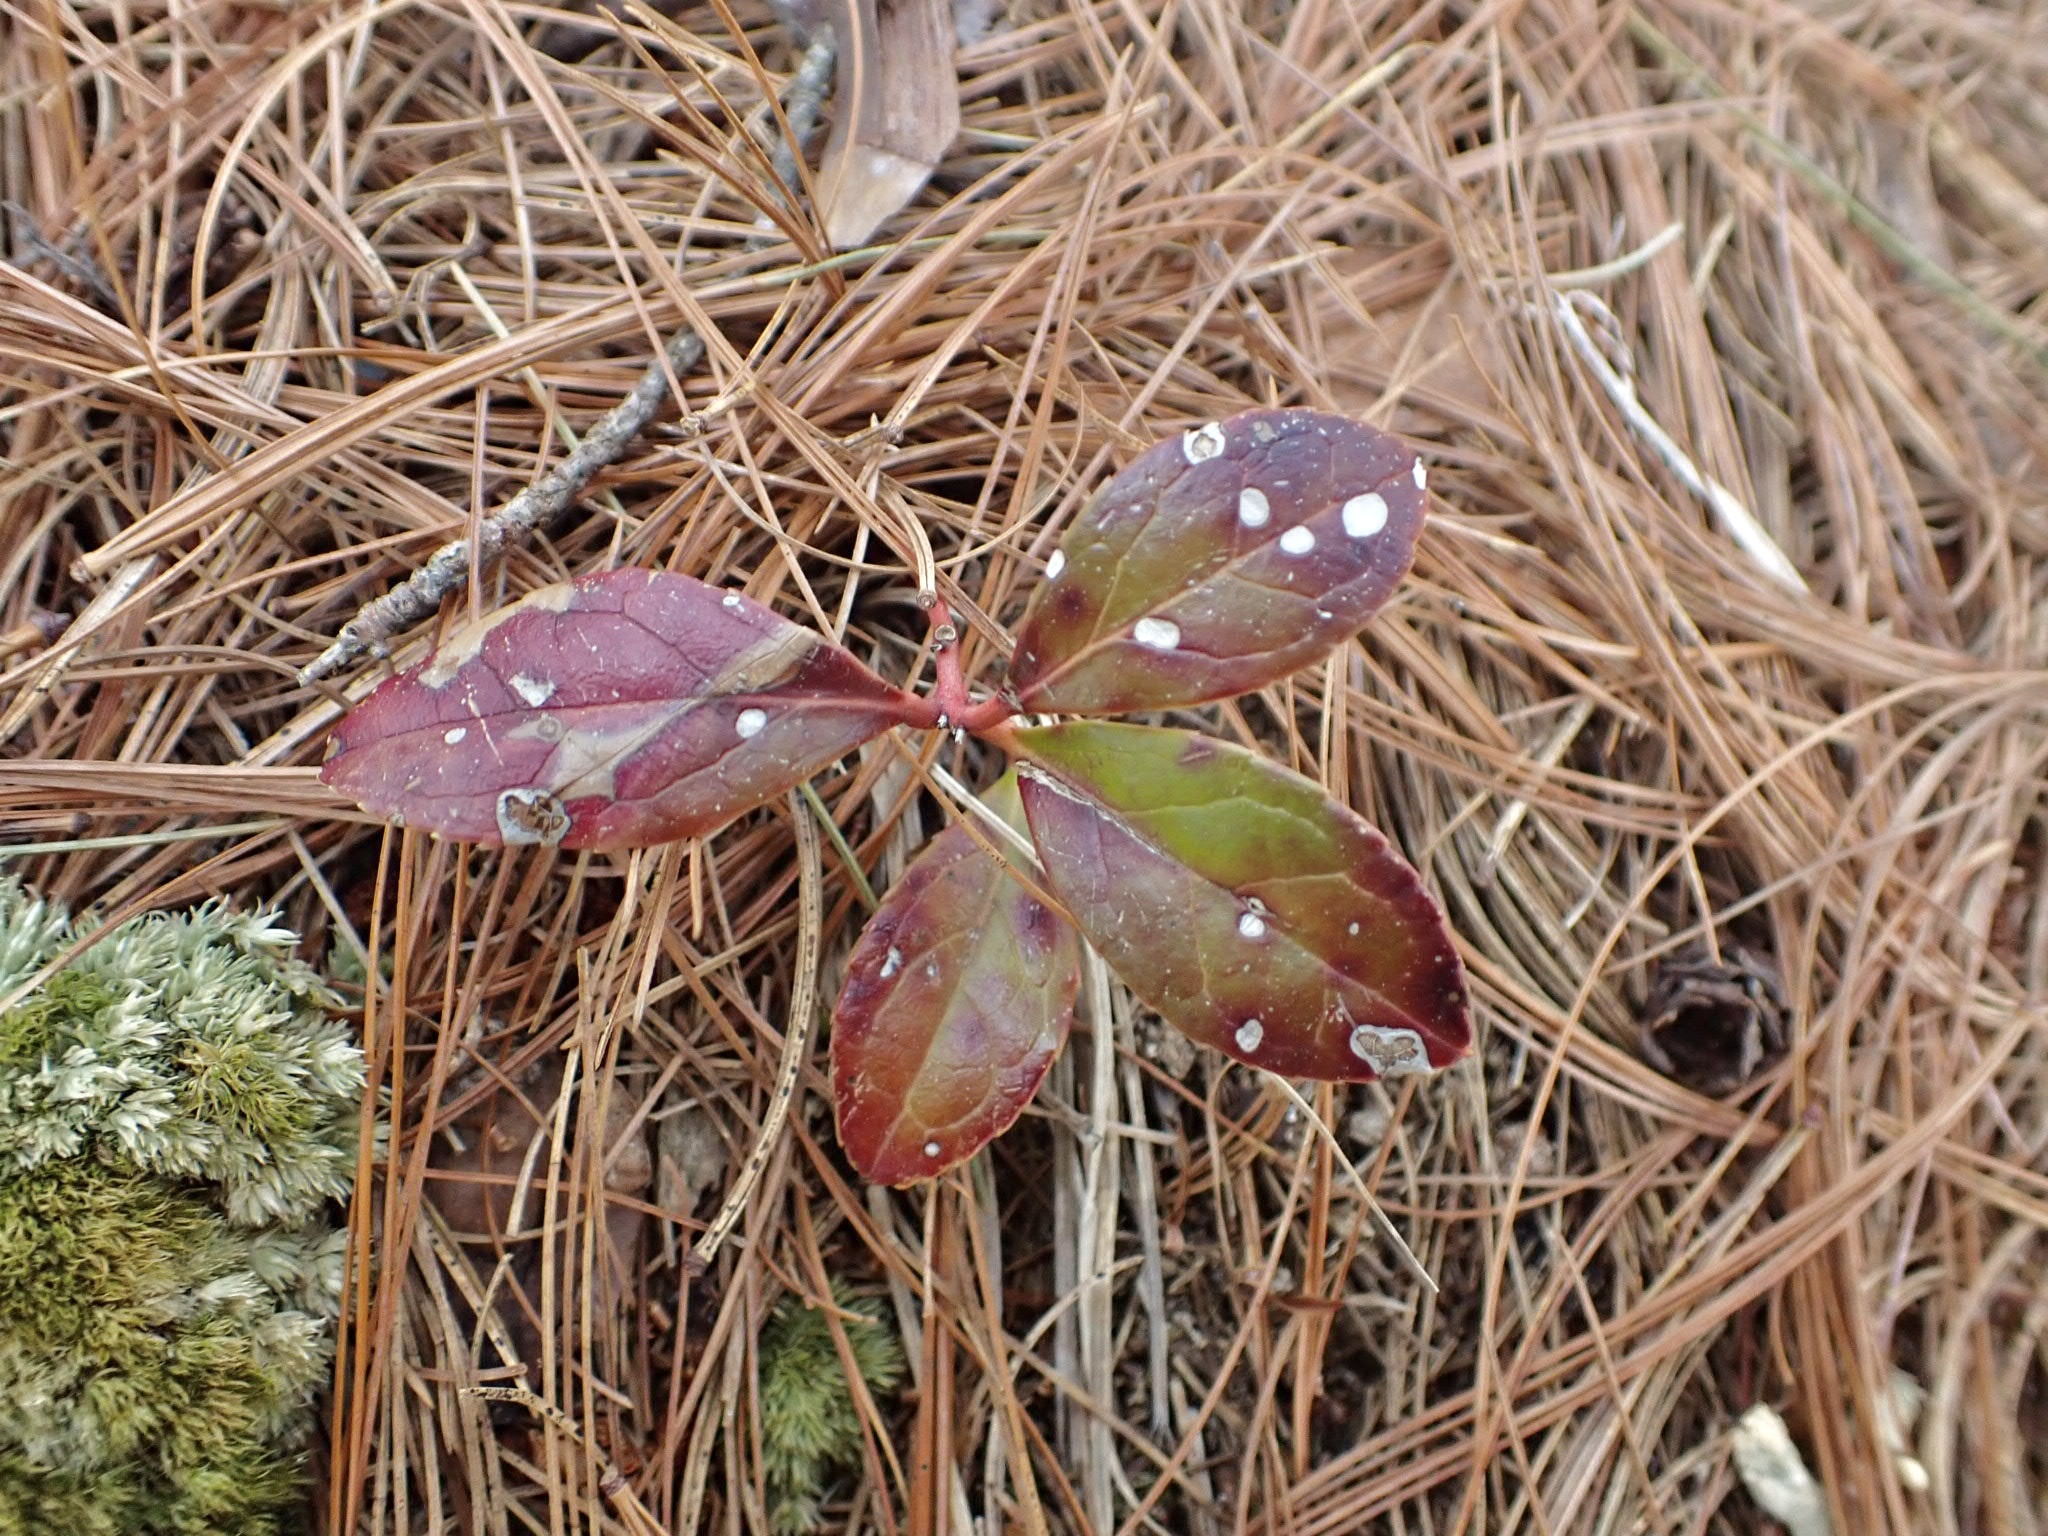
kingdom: Plantae
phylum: Tracheophyta
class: Magnoliopsida
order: Ericales
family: Ericaceae
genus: Gaultheria
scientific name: Gaultheria procumbens
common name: Checkerberry
